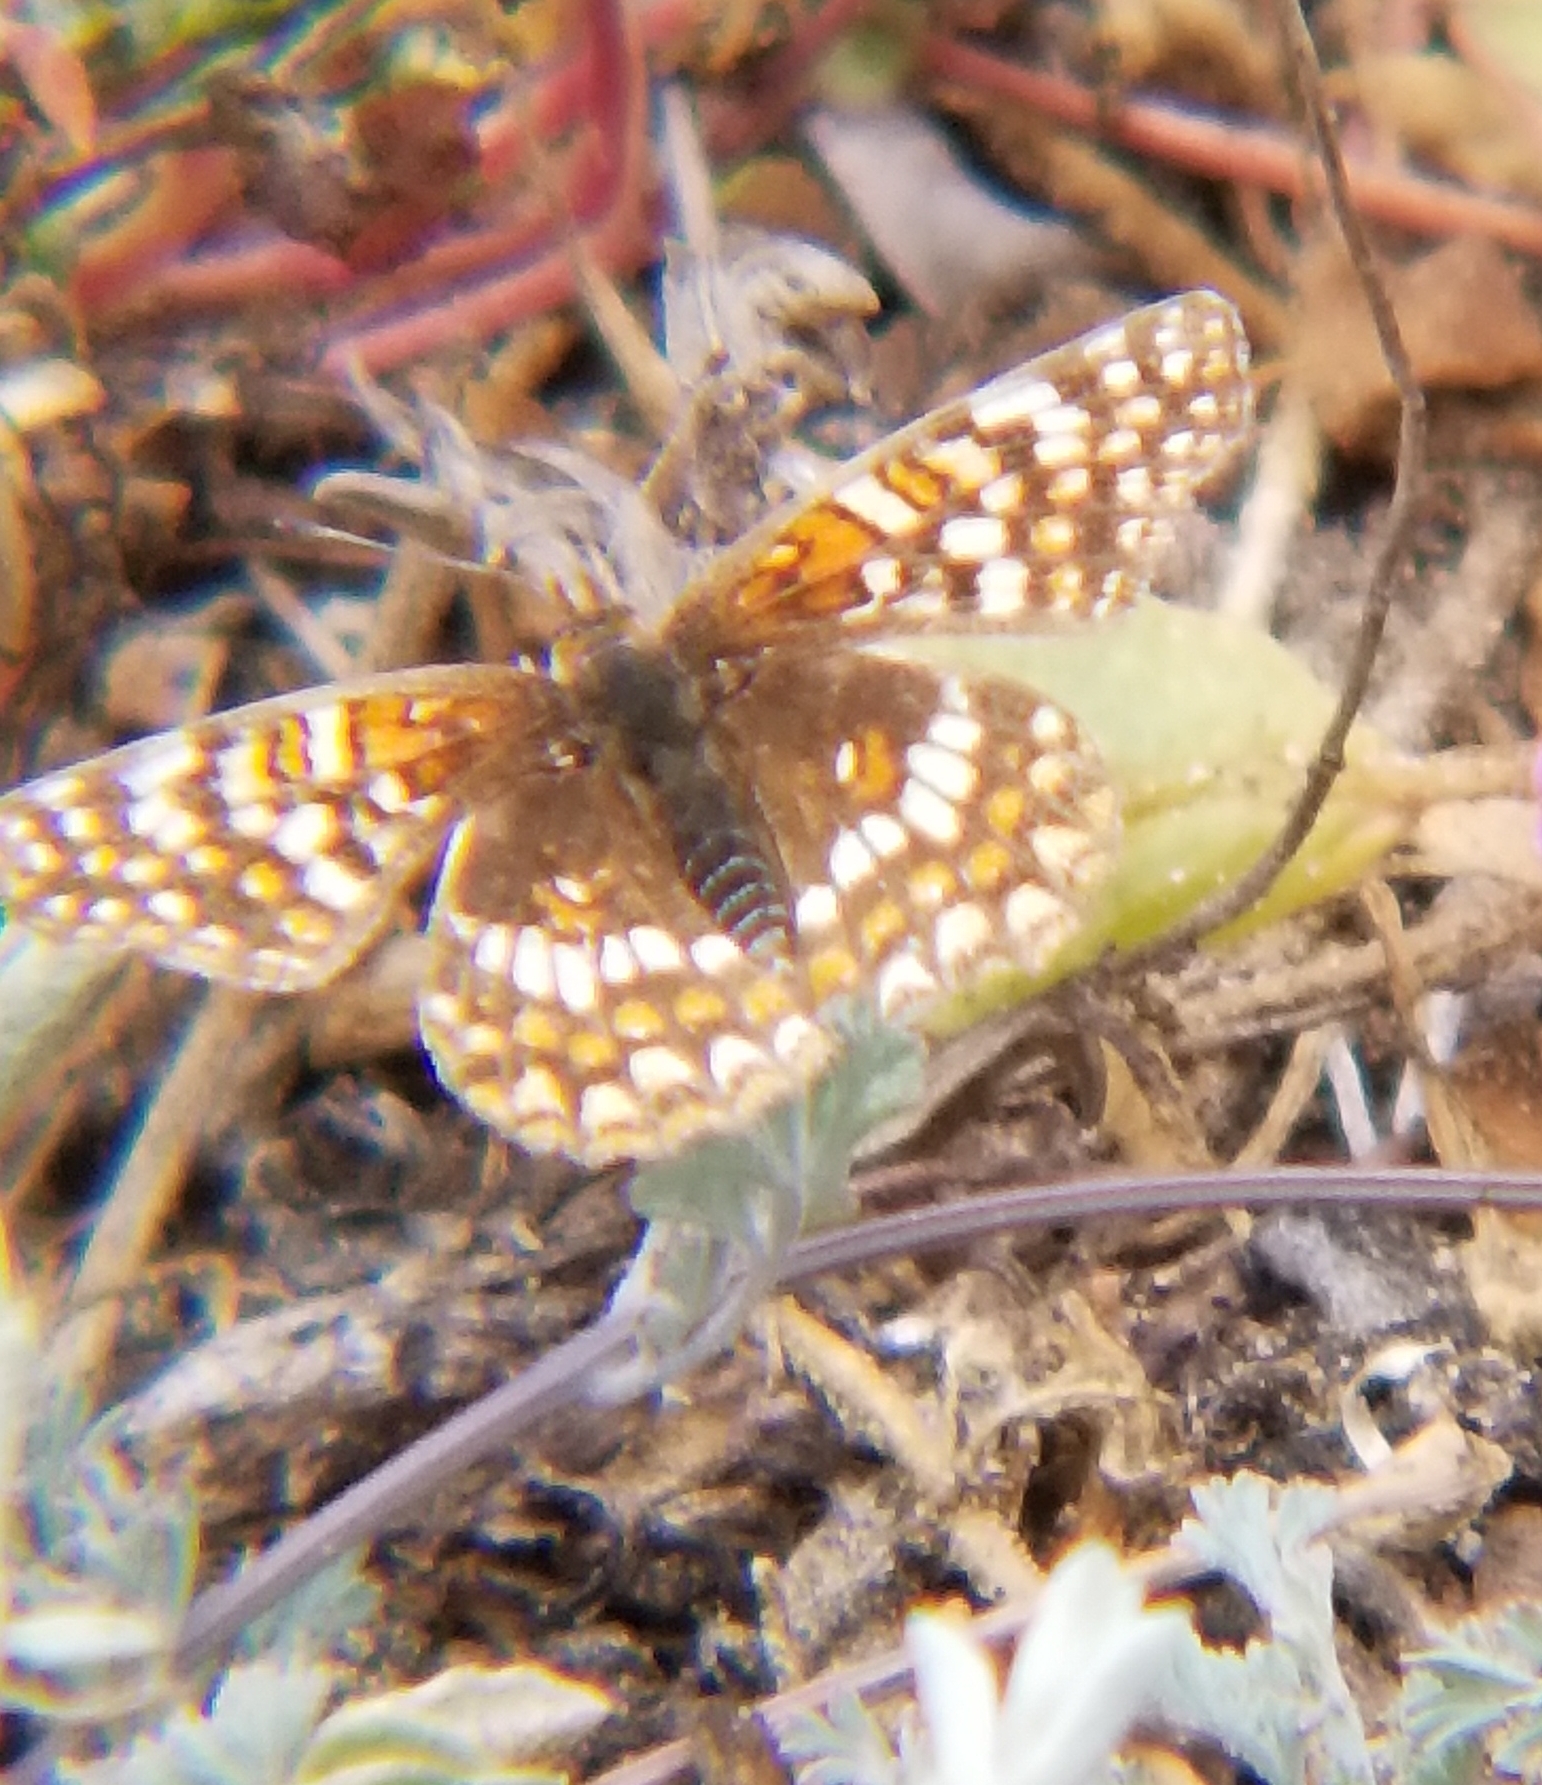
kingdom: Animalia
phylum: Arthropoda
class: Insecta
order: Lepidoptera
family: Nymphalidae
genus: Chlosyne
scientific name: Chlosyne gabbii
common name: Gabb's checkerspot
